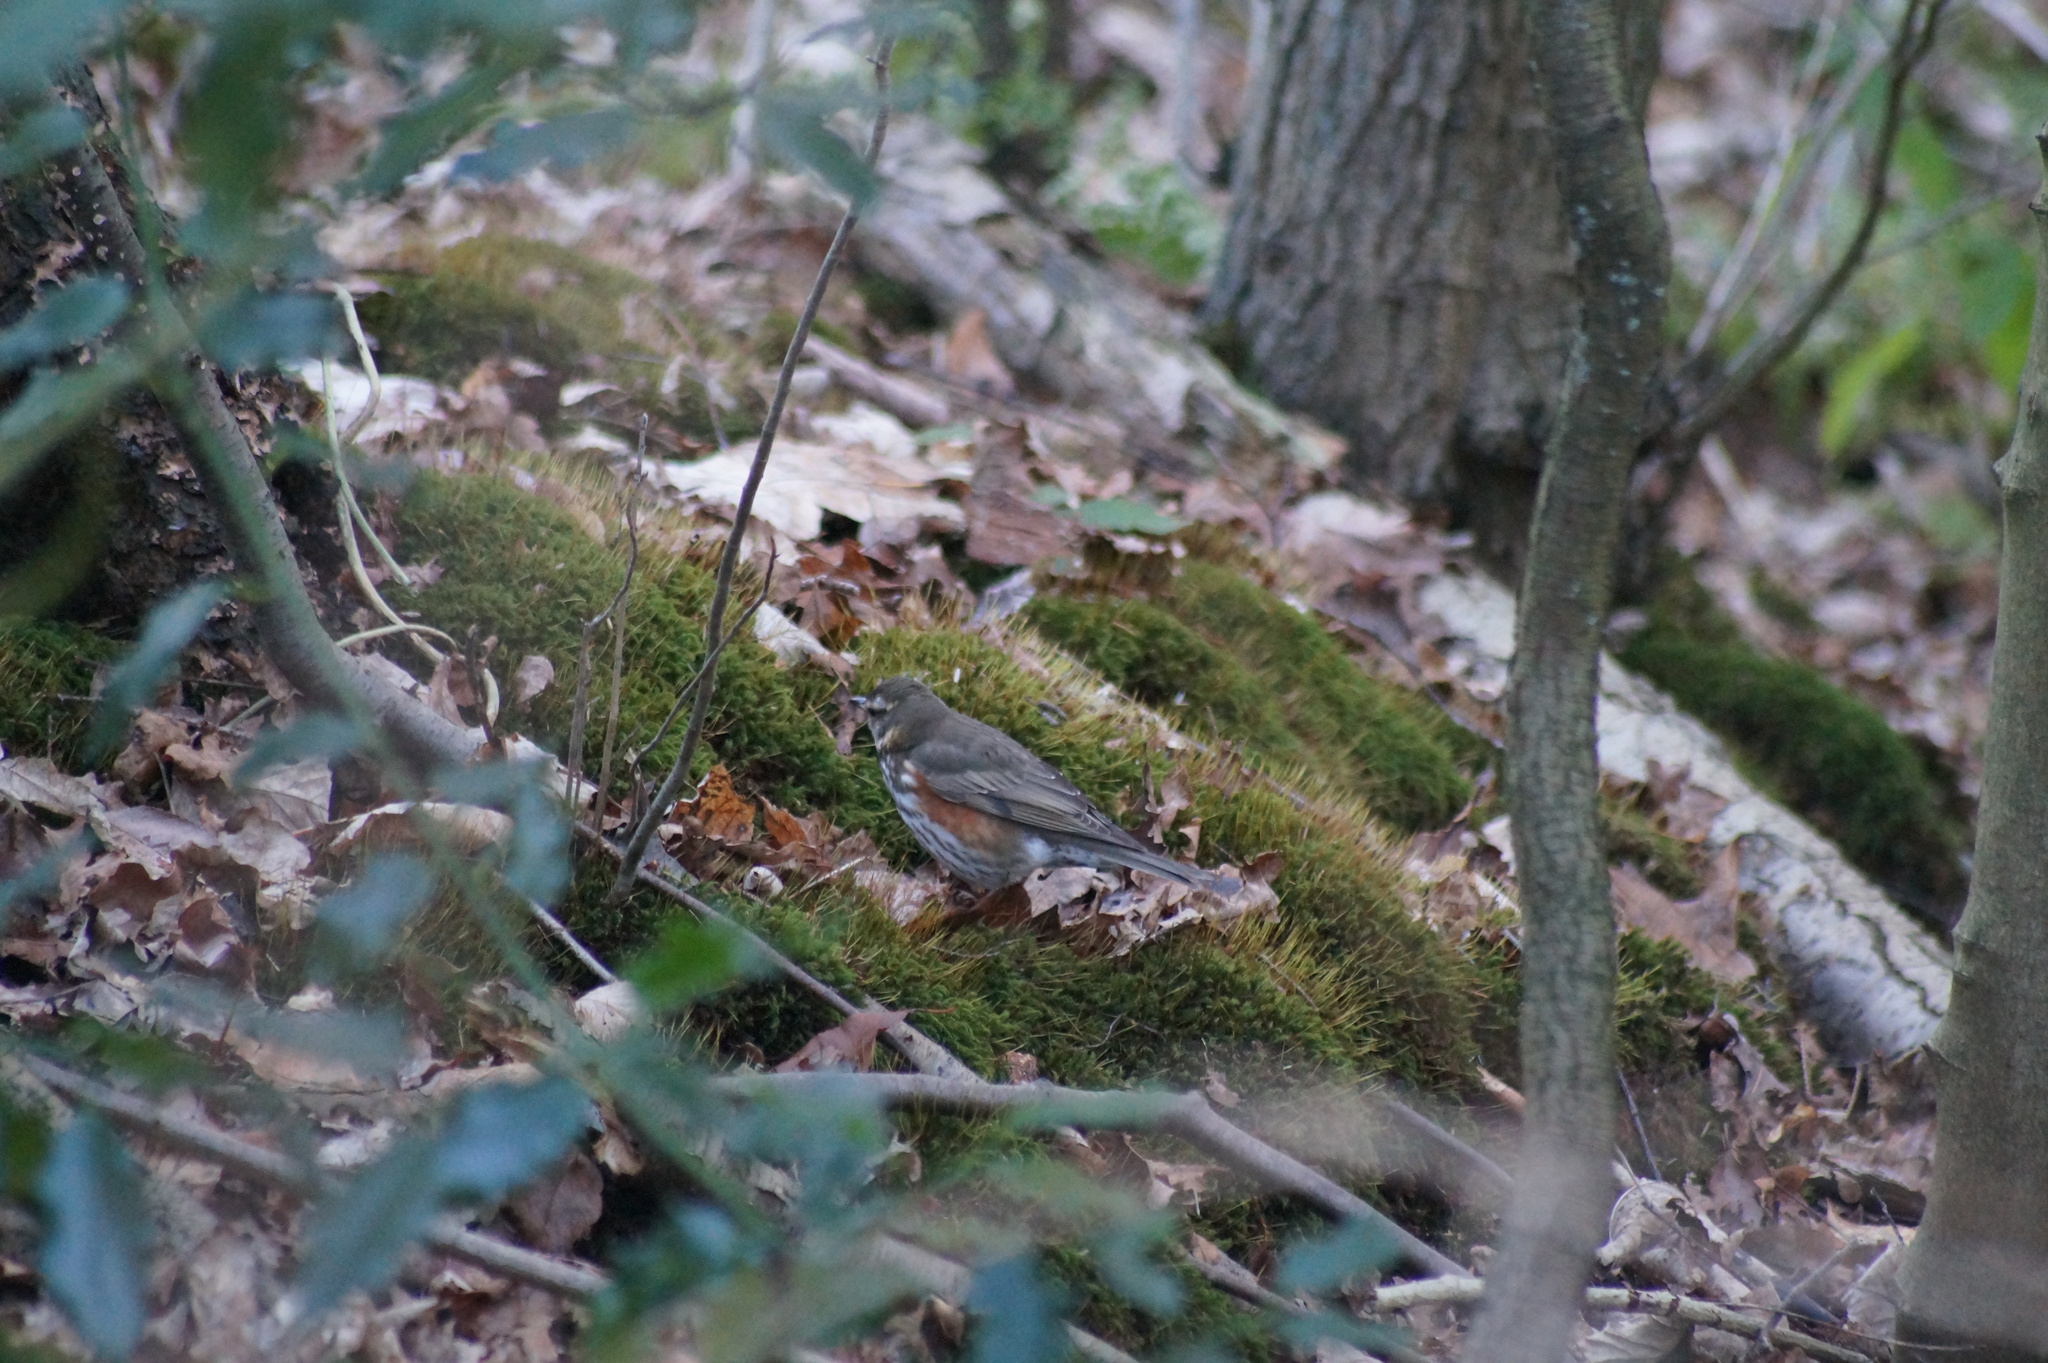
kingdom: Animalia
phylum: Chordata
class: Aves
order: Passeriformes
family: Turdidae
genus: Turdus
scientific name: Turdus iliacus
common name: Redwing
